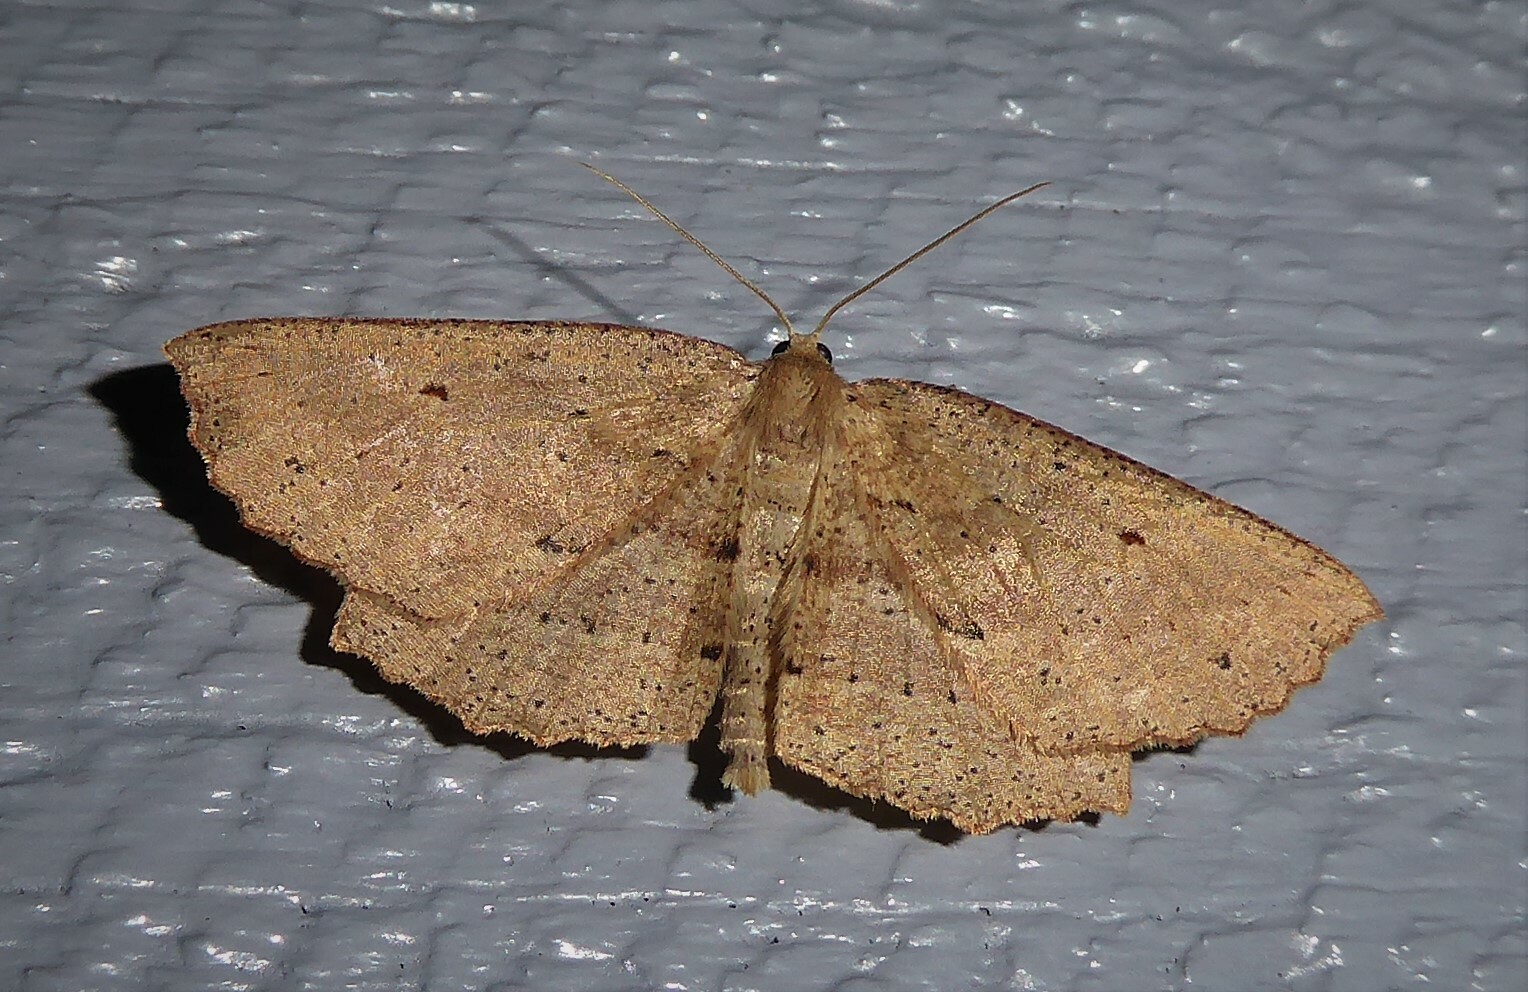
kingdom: Animalia
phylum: Arthropoda
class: Insecta
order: Lepidoptera
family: Geometridae
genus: Xyridacma
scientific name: Xyridacma veronicae
